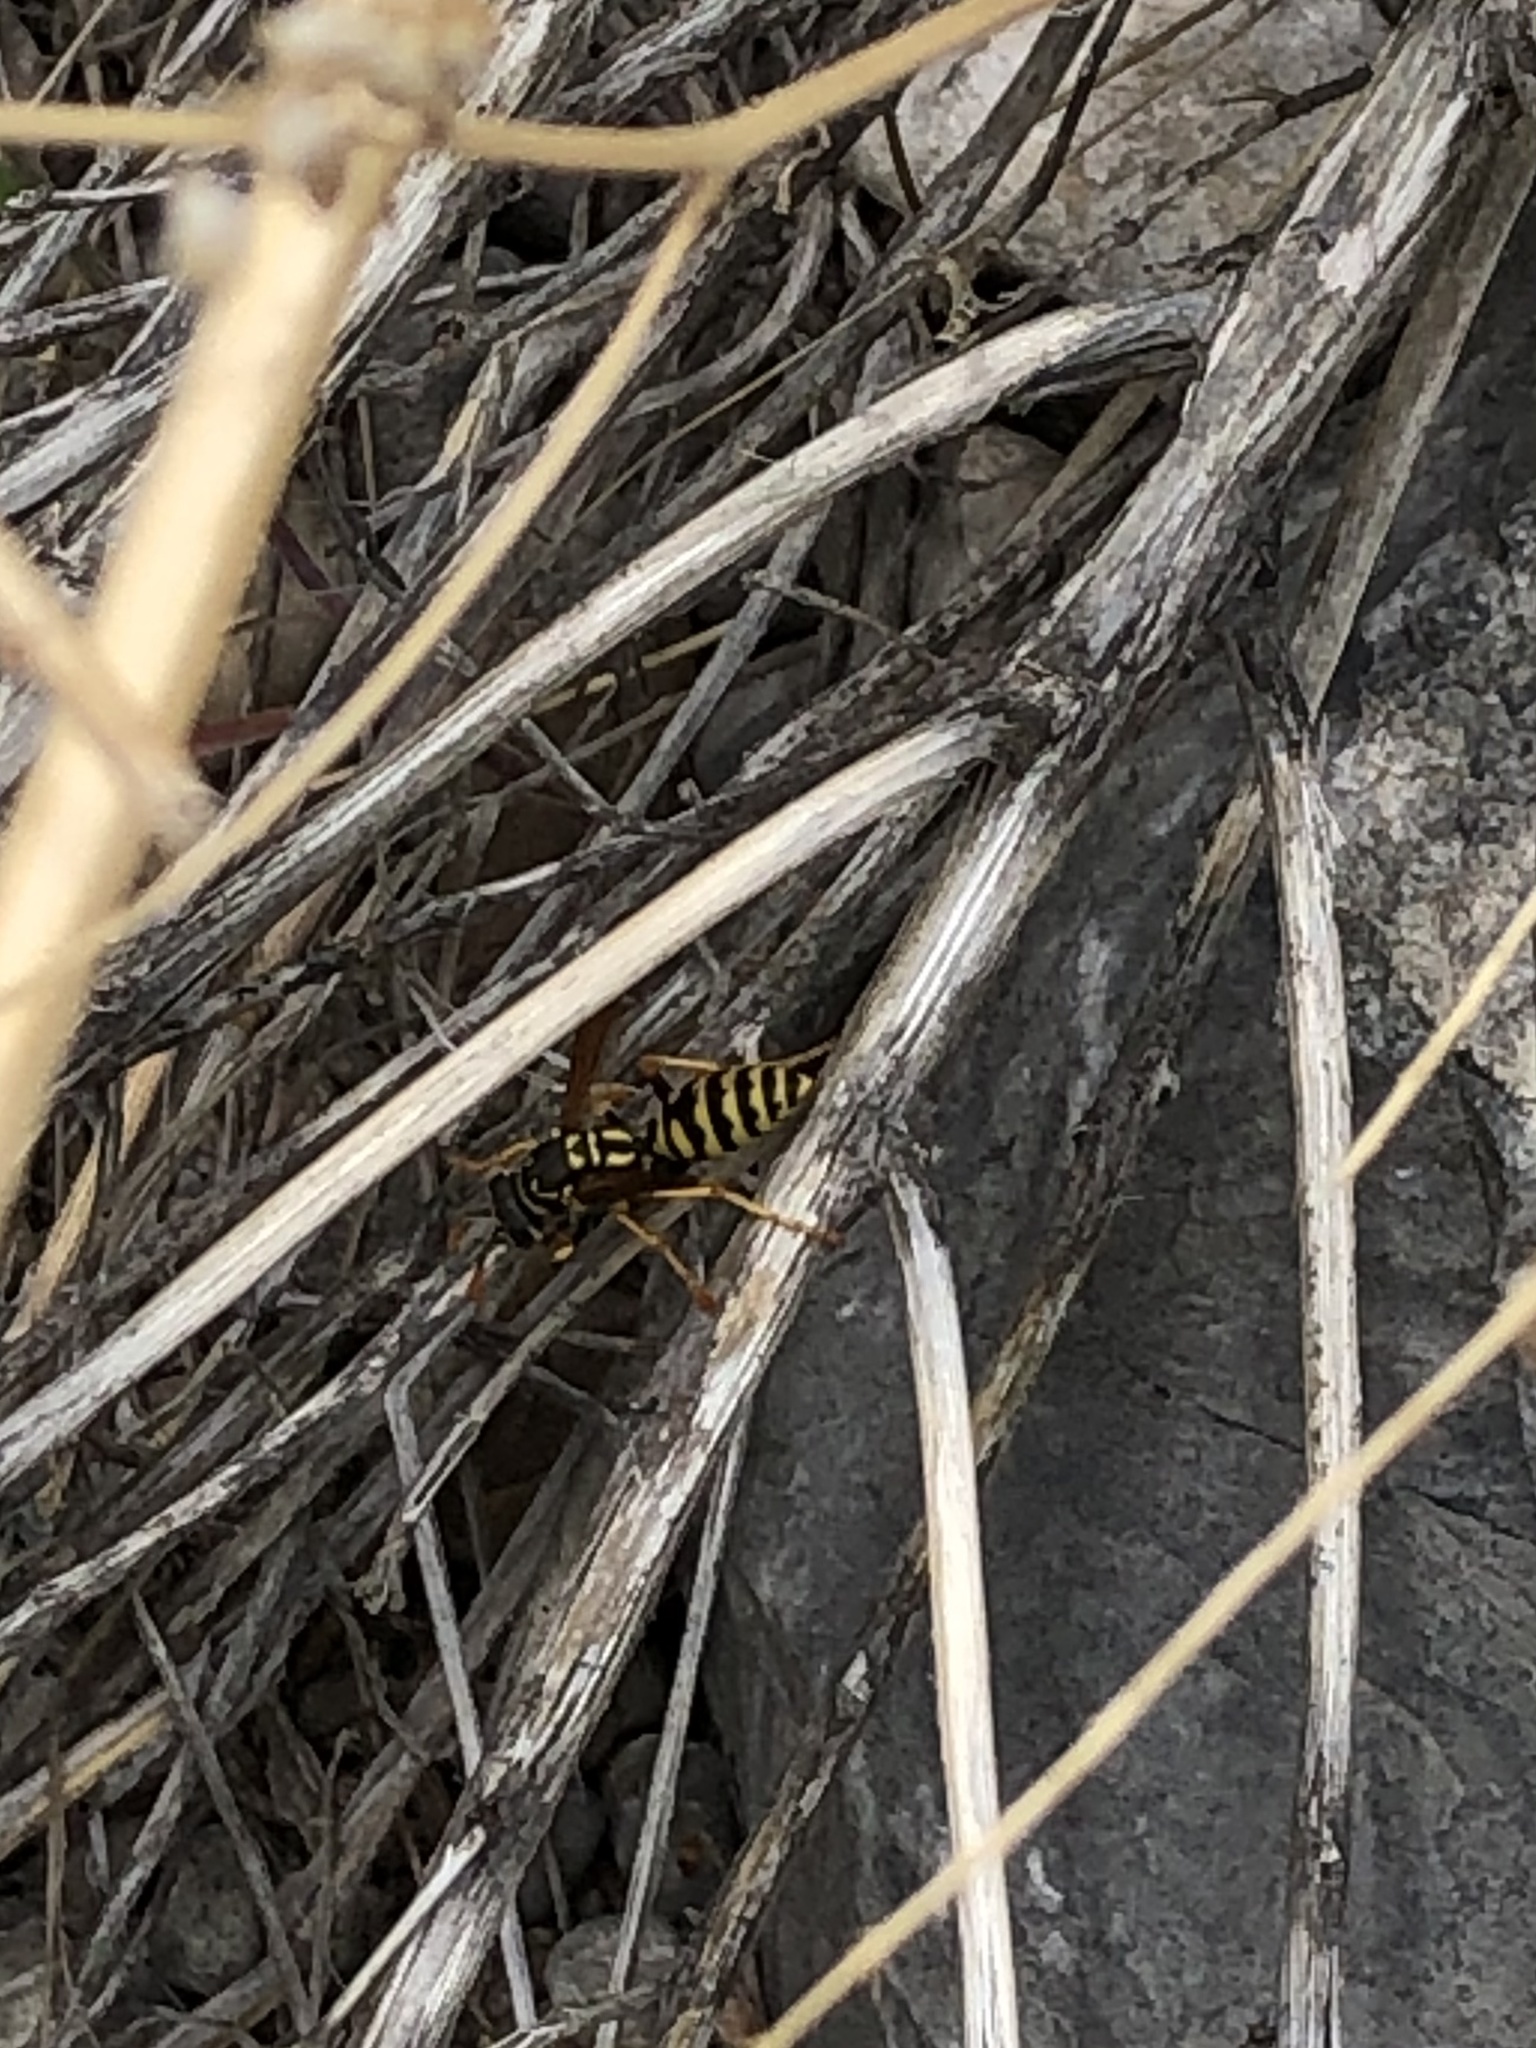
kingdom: Animalia
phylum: Arthropoda
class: Insecta
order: Hymenoptera
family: Eumenidae
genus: Polistes
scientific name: Polistes dominula
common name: Paper wasp
